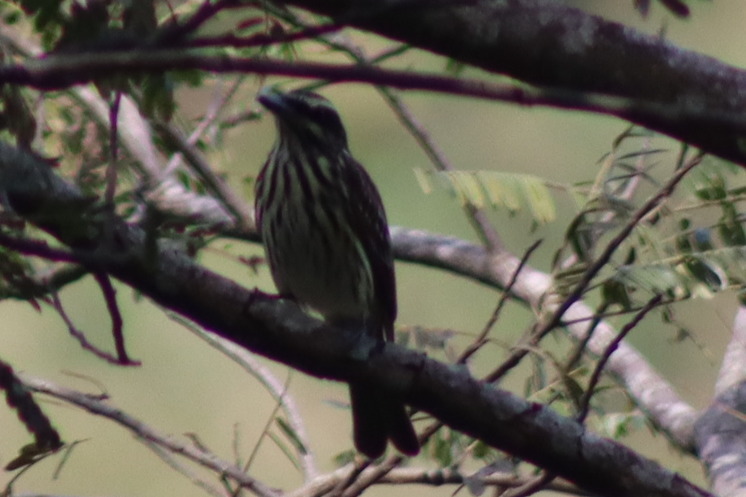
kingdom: Animalia
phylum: Chordata
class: Aves
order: Passeriformes
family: Tyrannidae
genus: Myiodynastes
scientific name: Myiodynastes maculatus
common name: Streaked flycatcher
